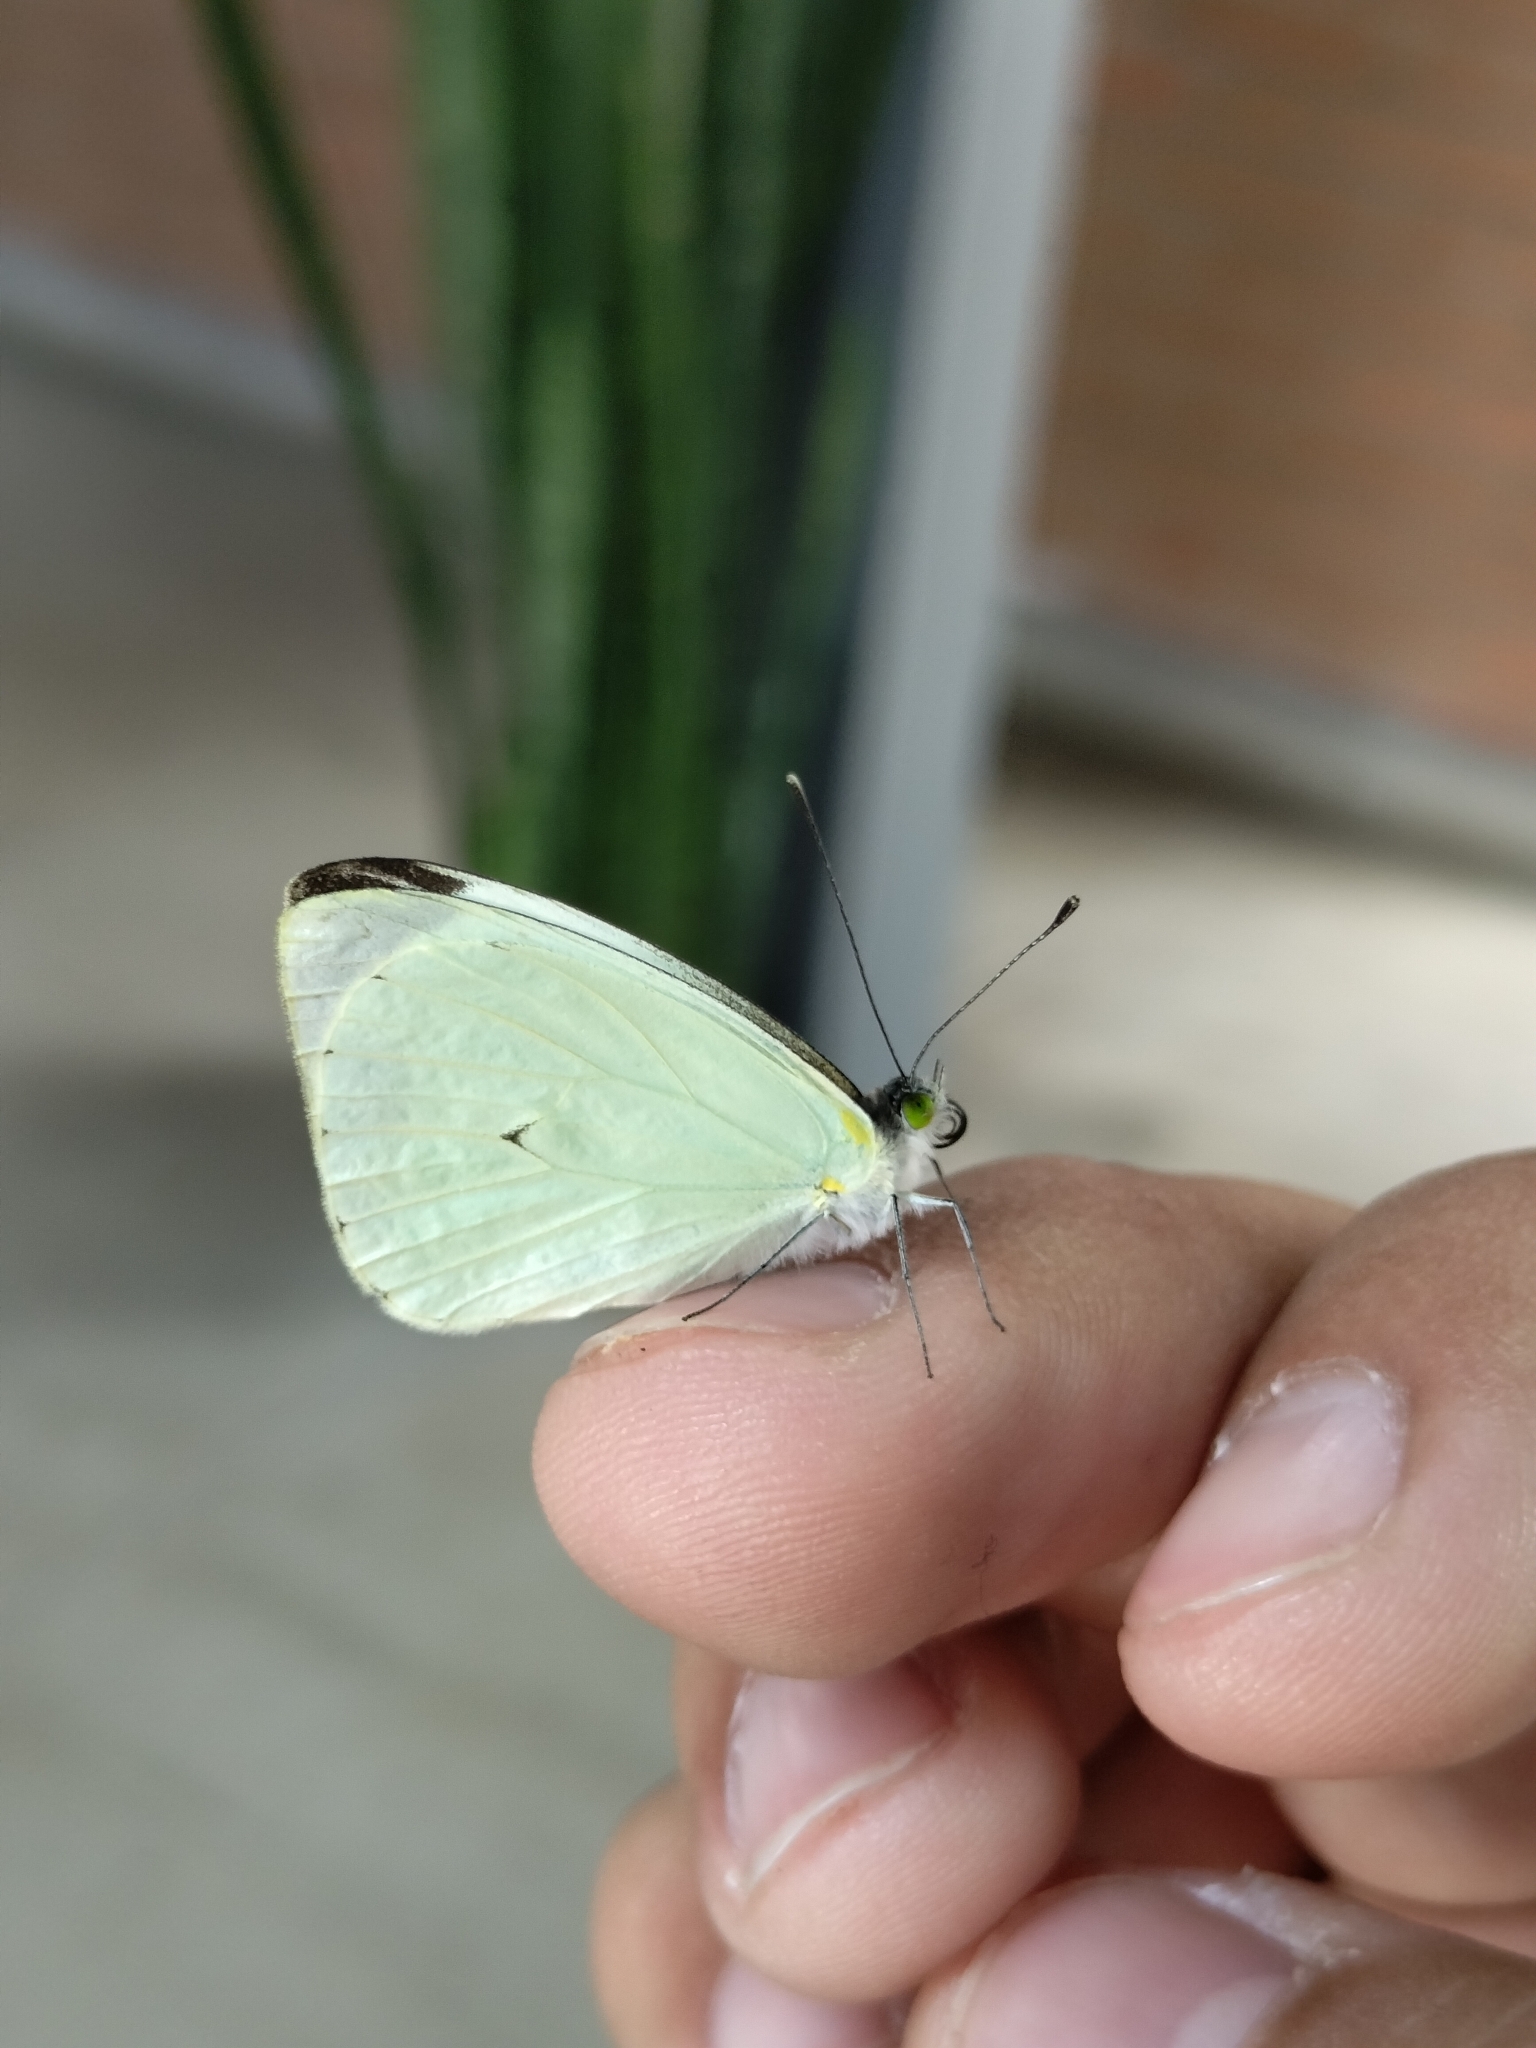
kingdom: Animalia
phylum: Arthropoda
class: Insecta
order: Lepidoptera
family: Pieridae
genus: Leptophobia
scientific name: Leptophobia aripa
